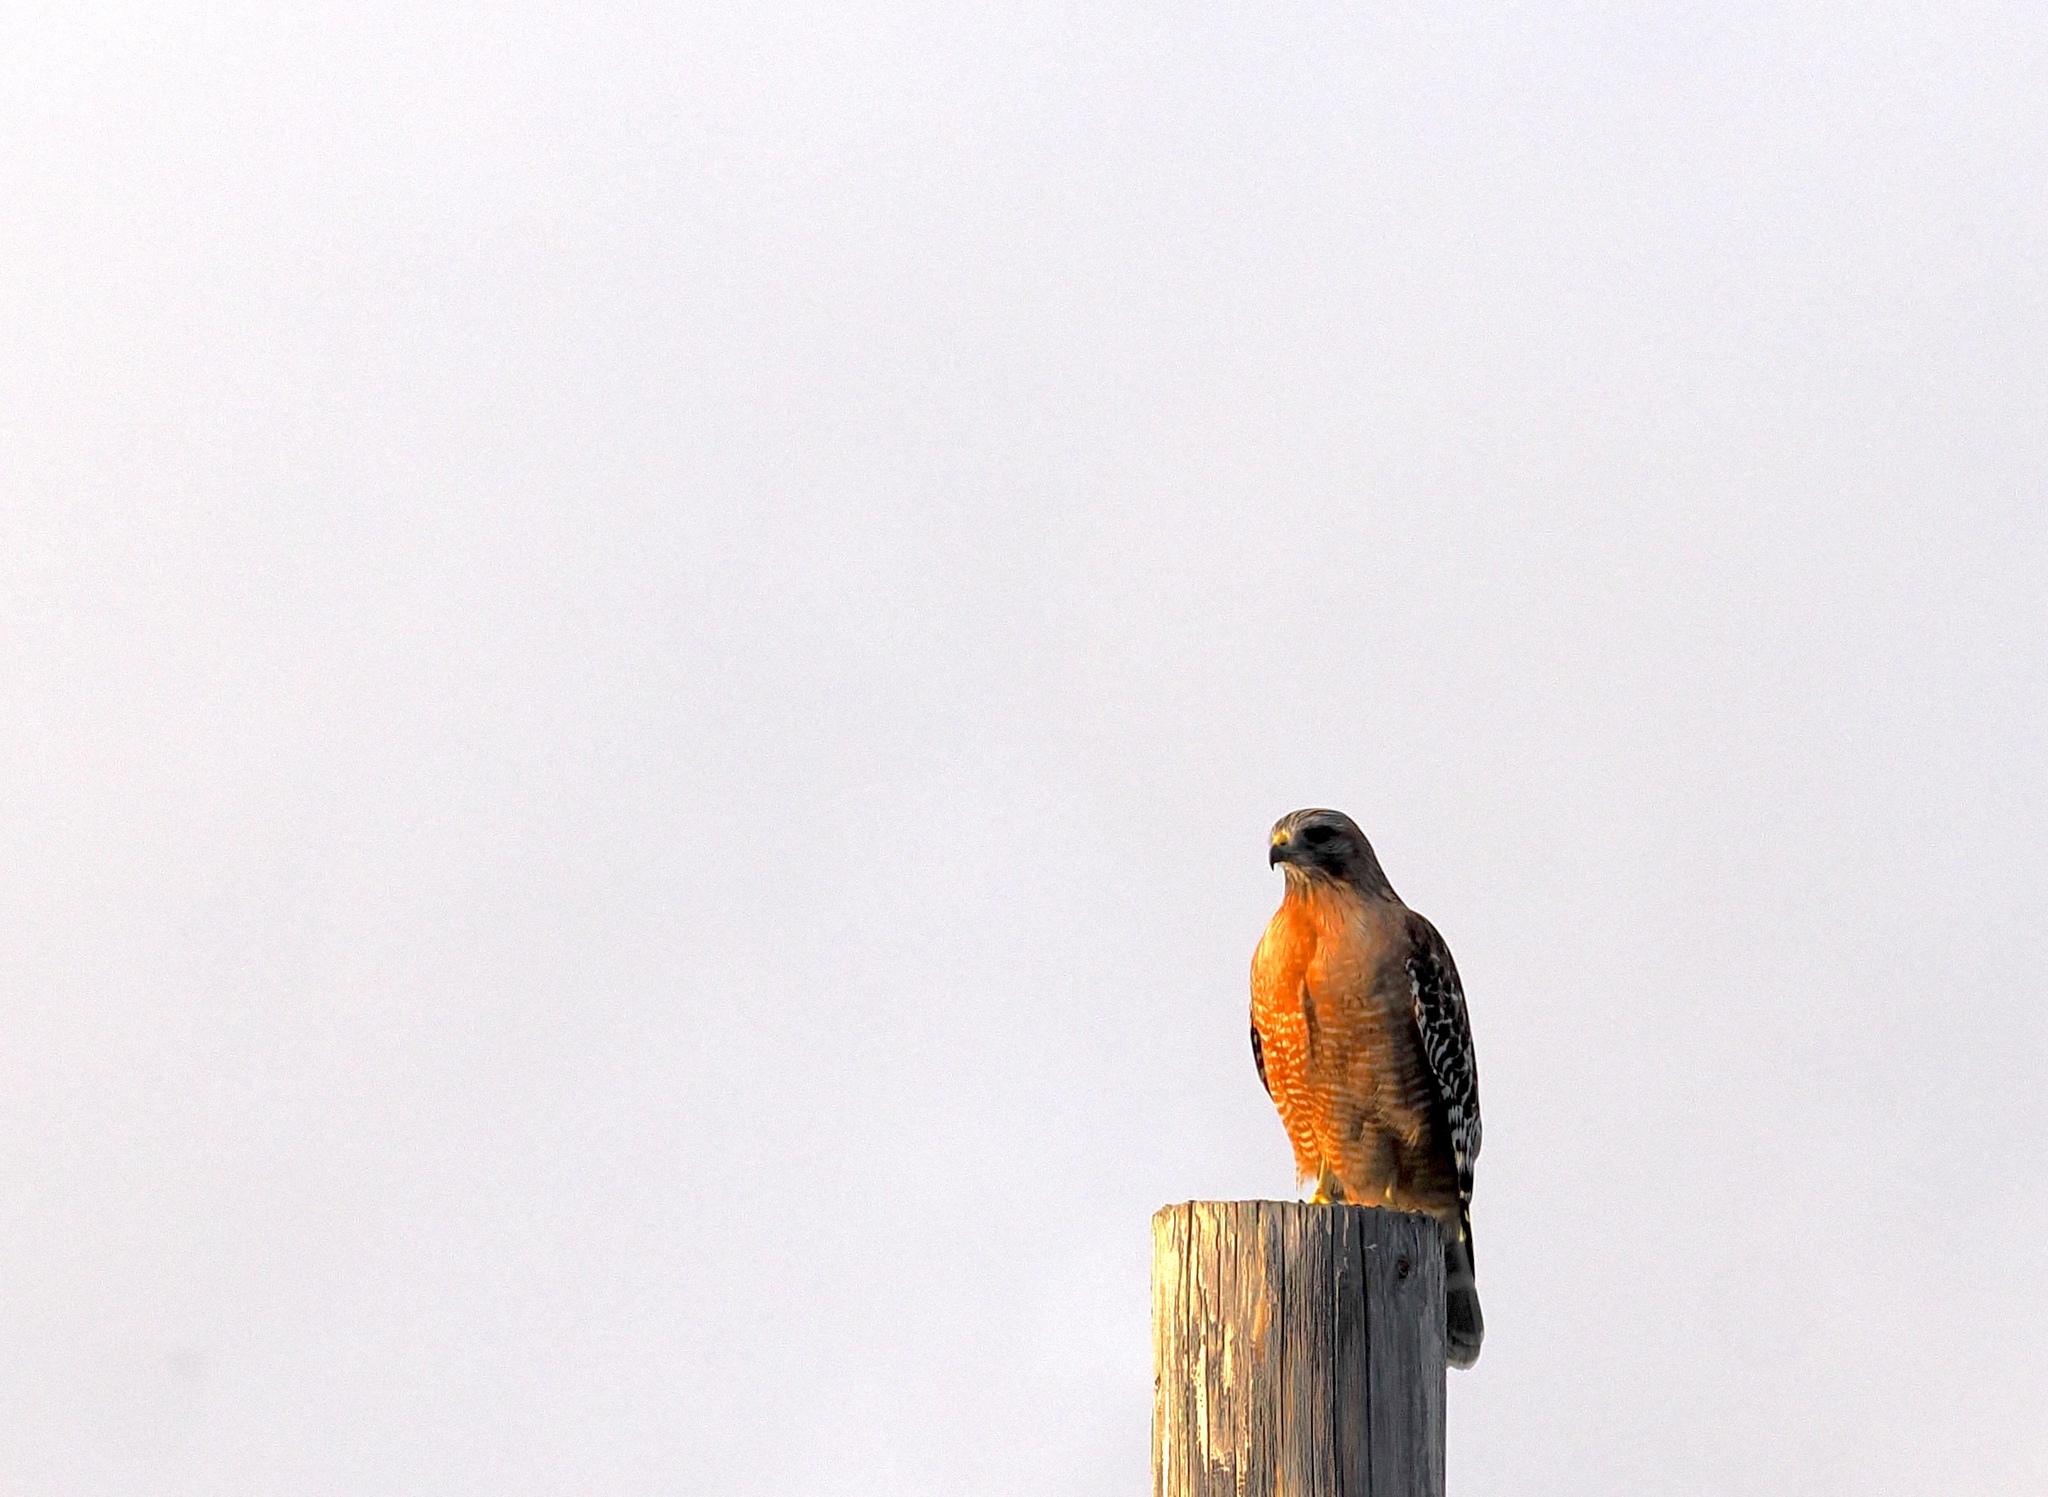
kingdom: Animalia
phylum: Chordata
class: Aves
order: Accipitriformes
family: Accipitridae
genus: Buteo
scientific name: Buteo lineatus
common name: Red-shouldered hawk
